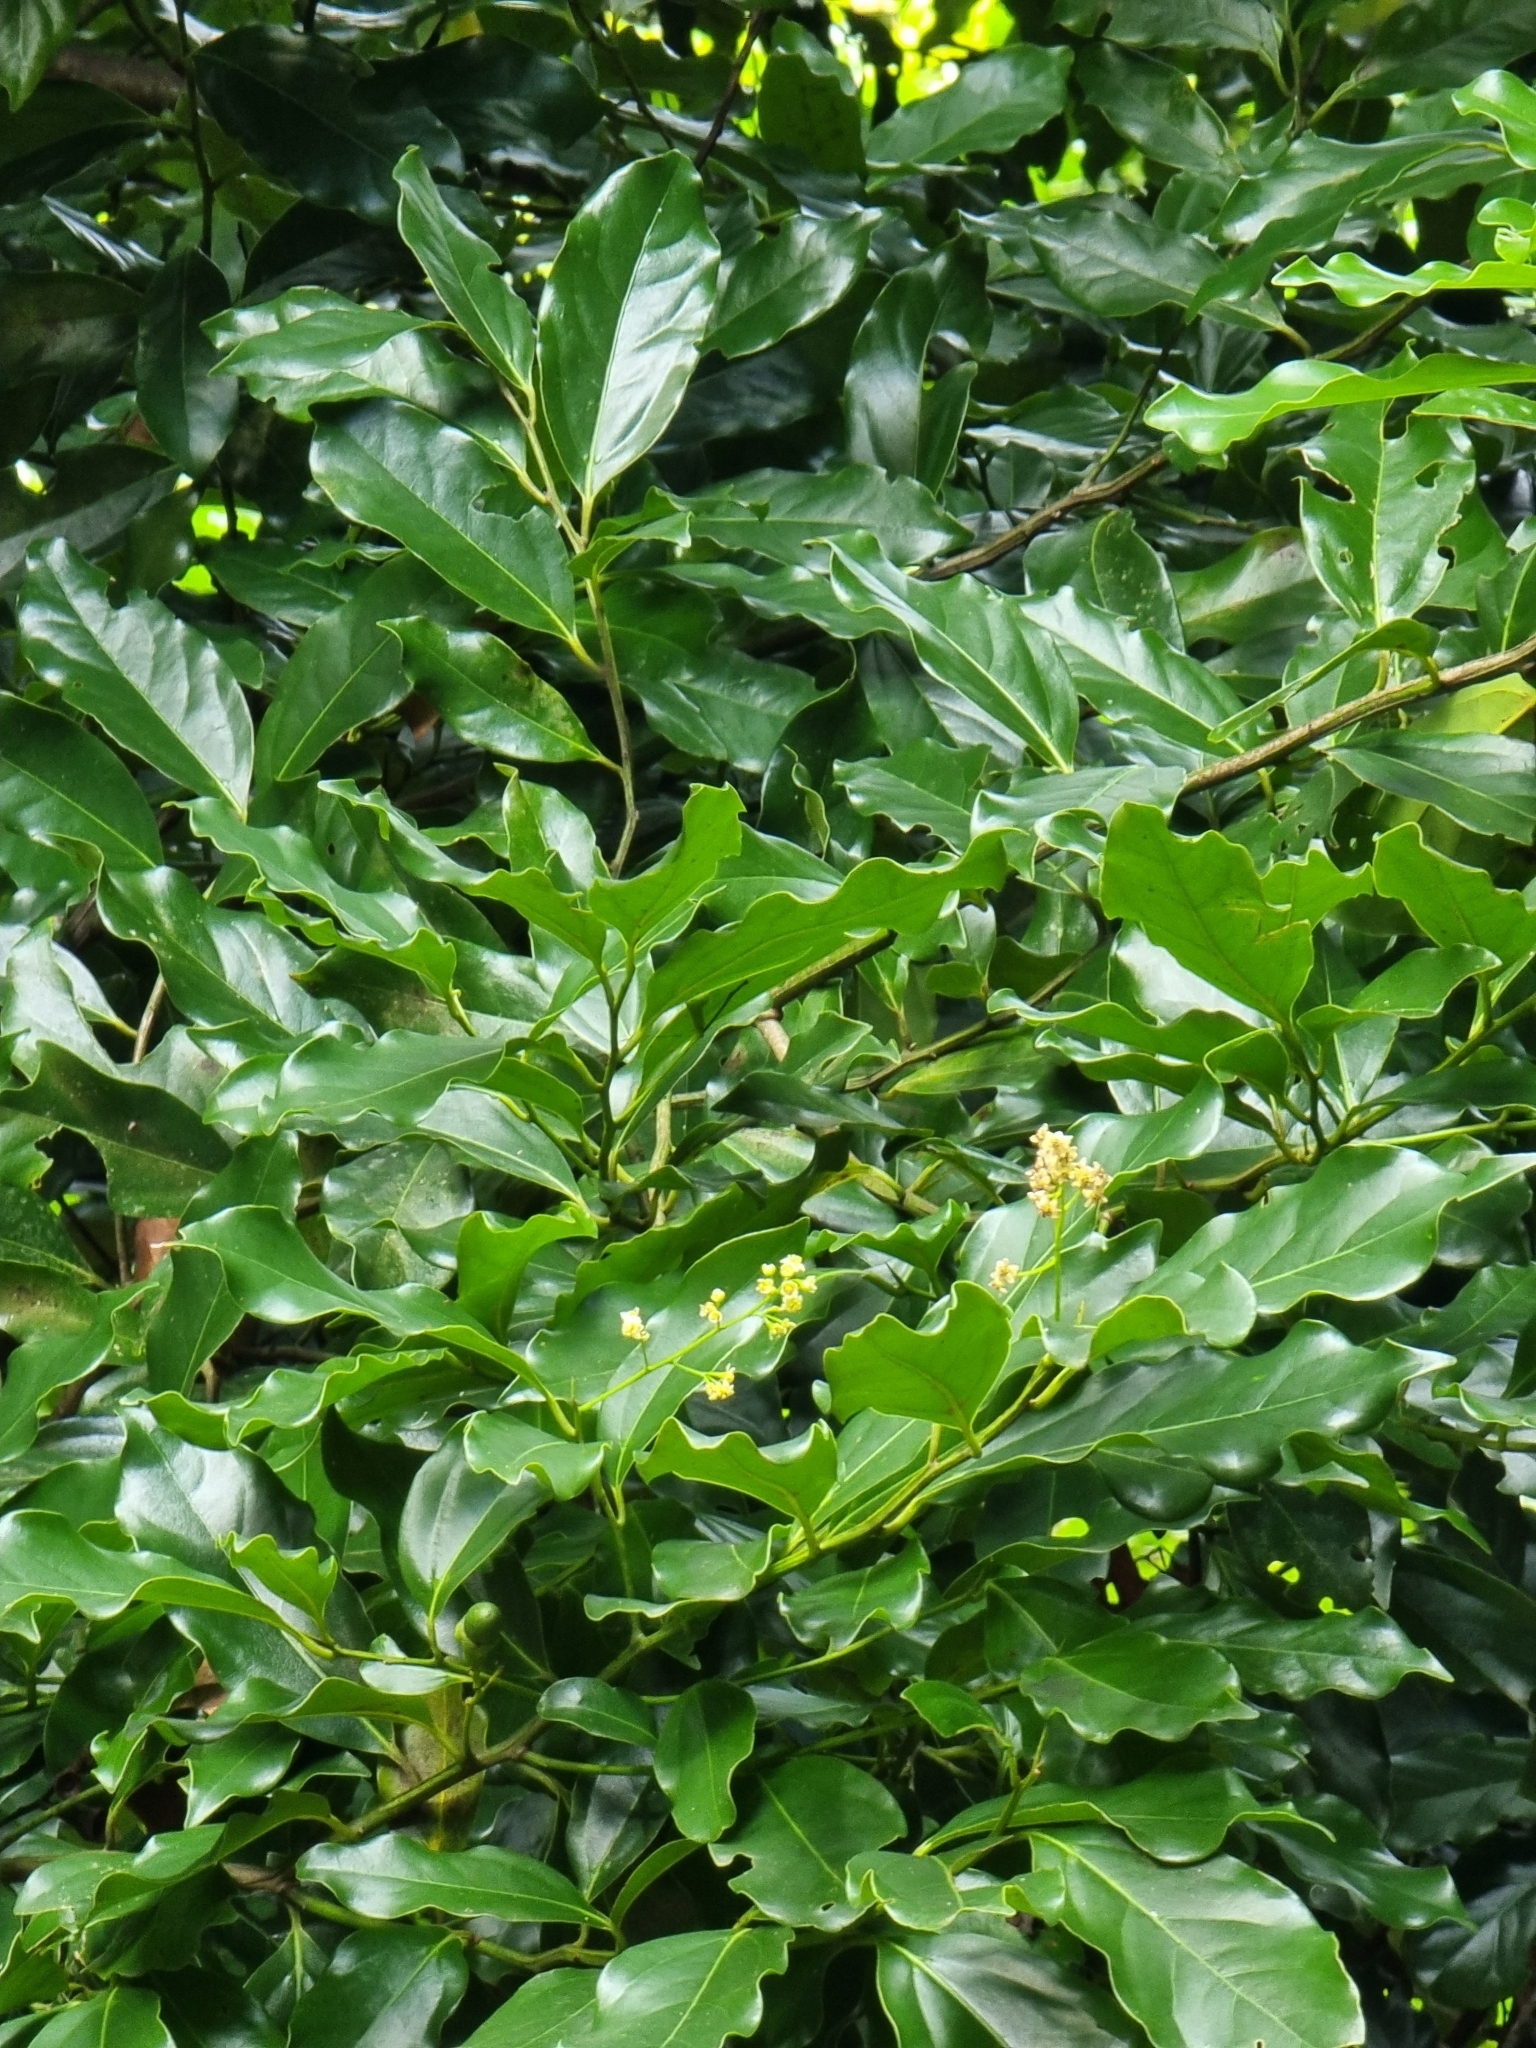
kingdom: Plantae
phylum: Tracheophyta
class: Magnoliopsida
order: Laurales
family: Lauraceae
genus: Mespilodaphne
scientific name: Mespilodaphne foetens
